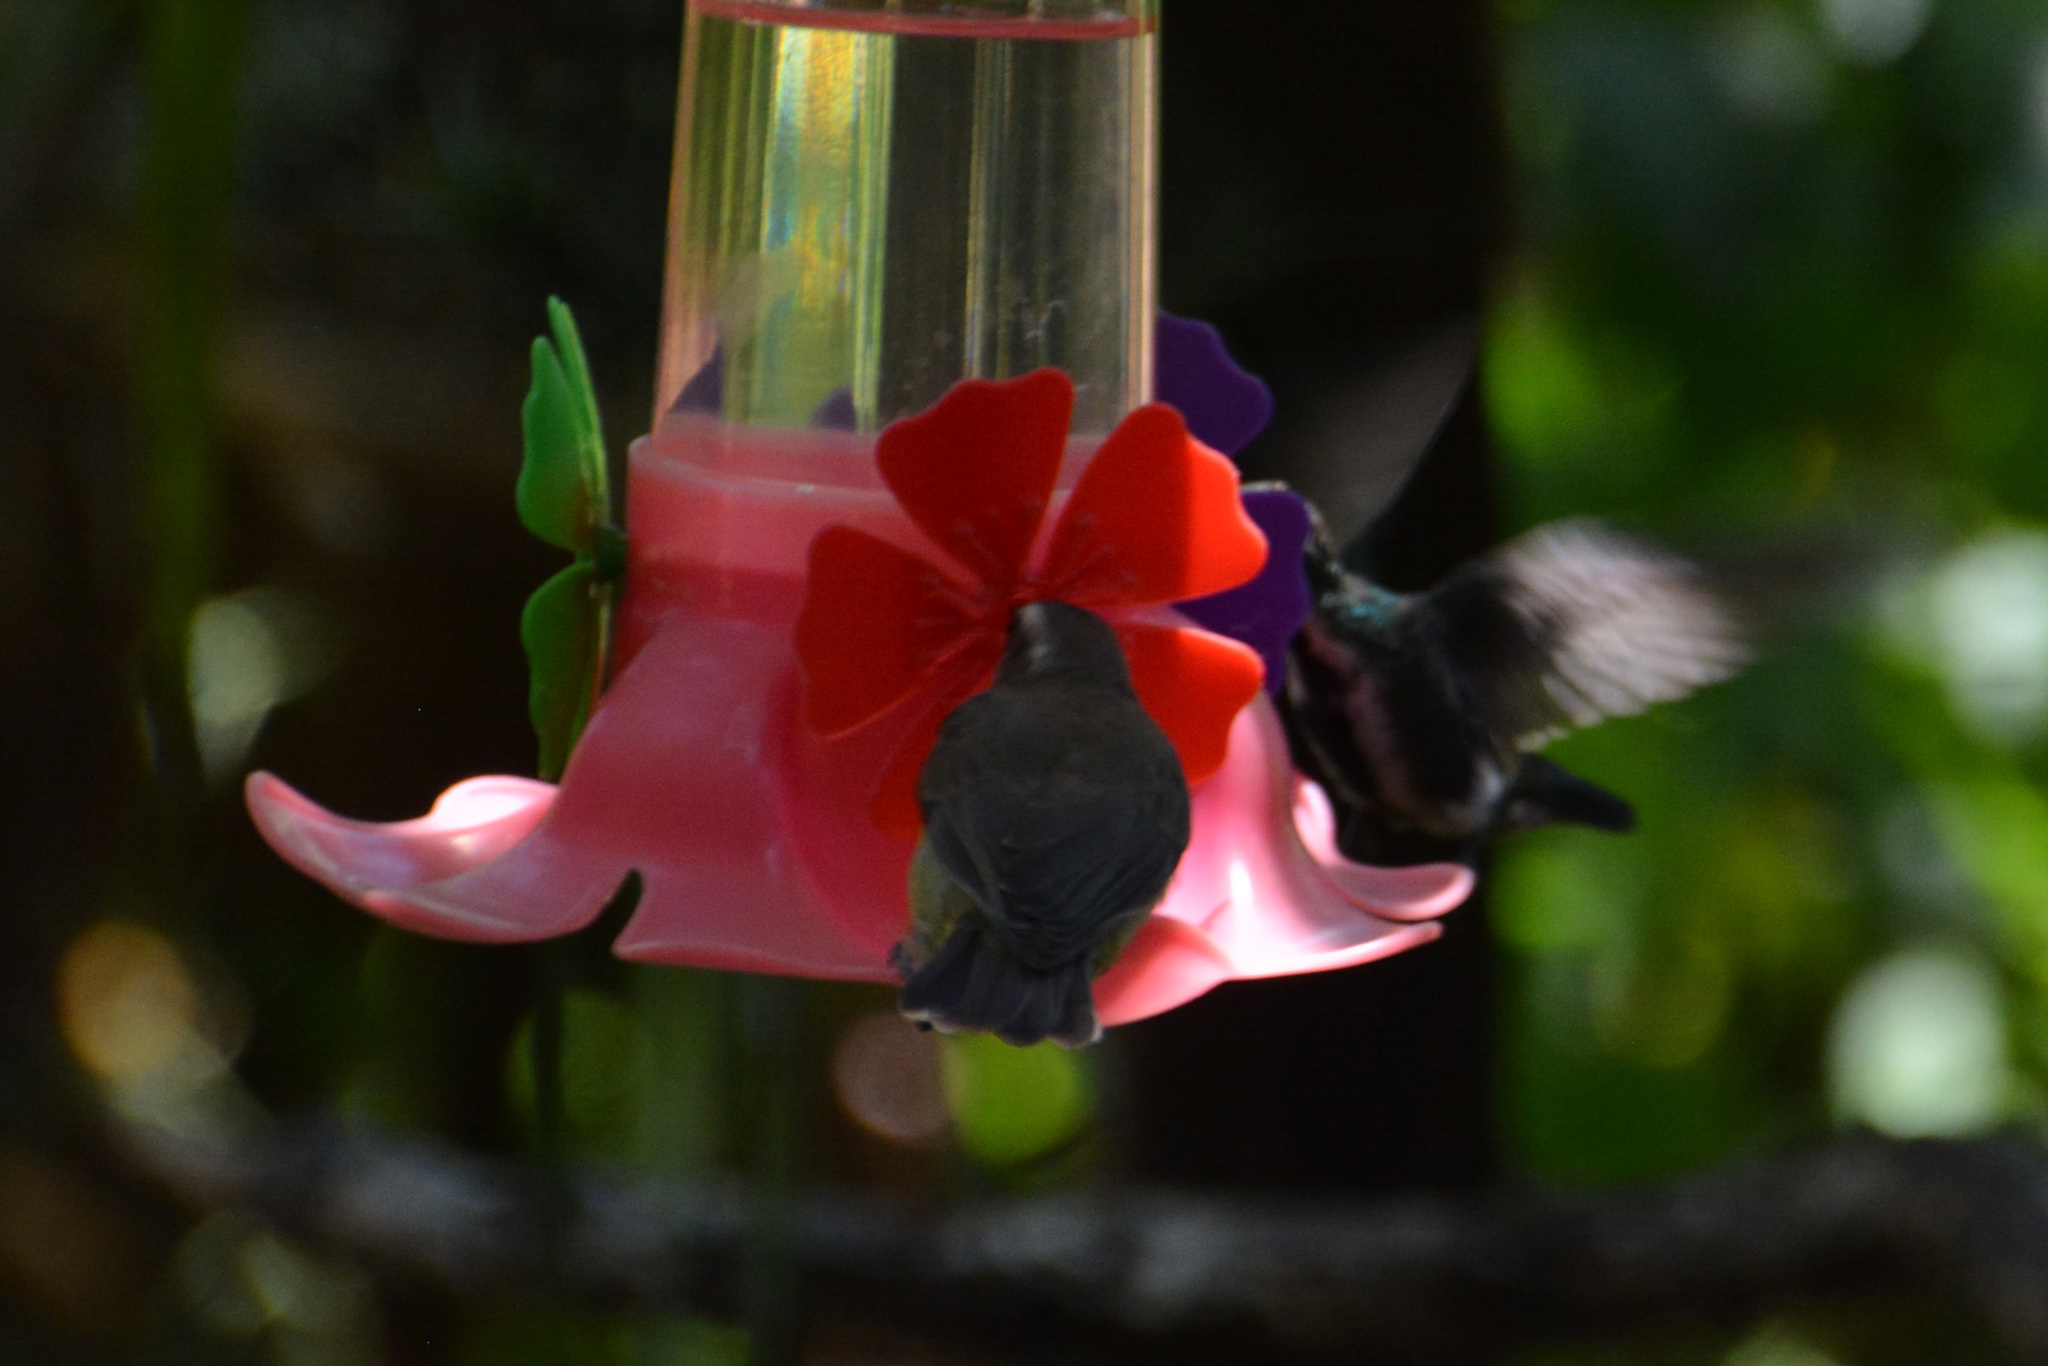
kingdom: Animalia
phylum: Chordata
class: Aves
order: Passeriformes
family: Thraupidae
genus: Coereba
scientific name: Coereba flaveola
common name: Bananaquit
